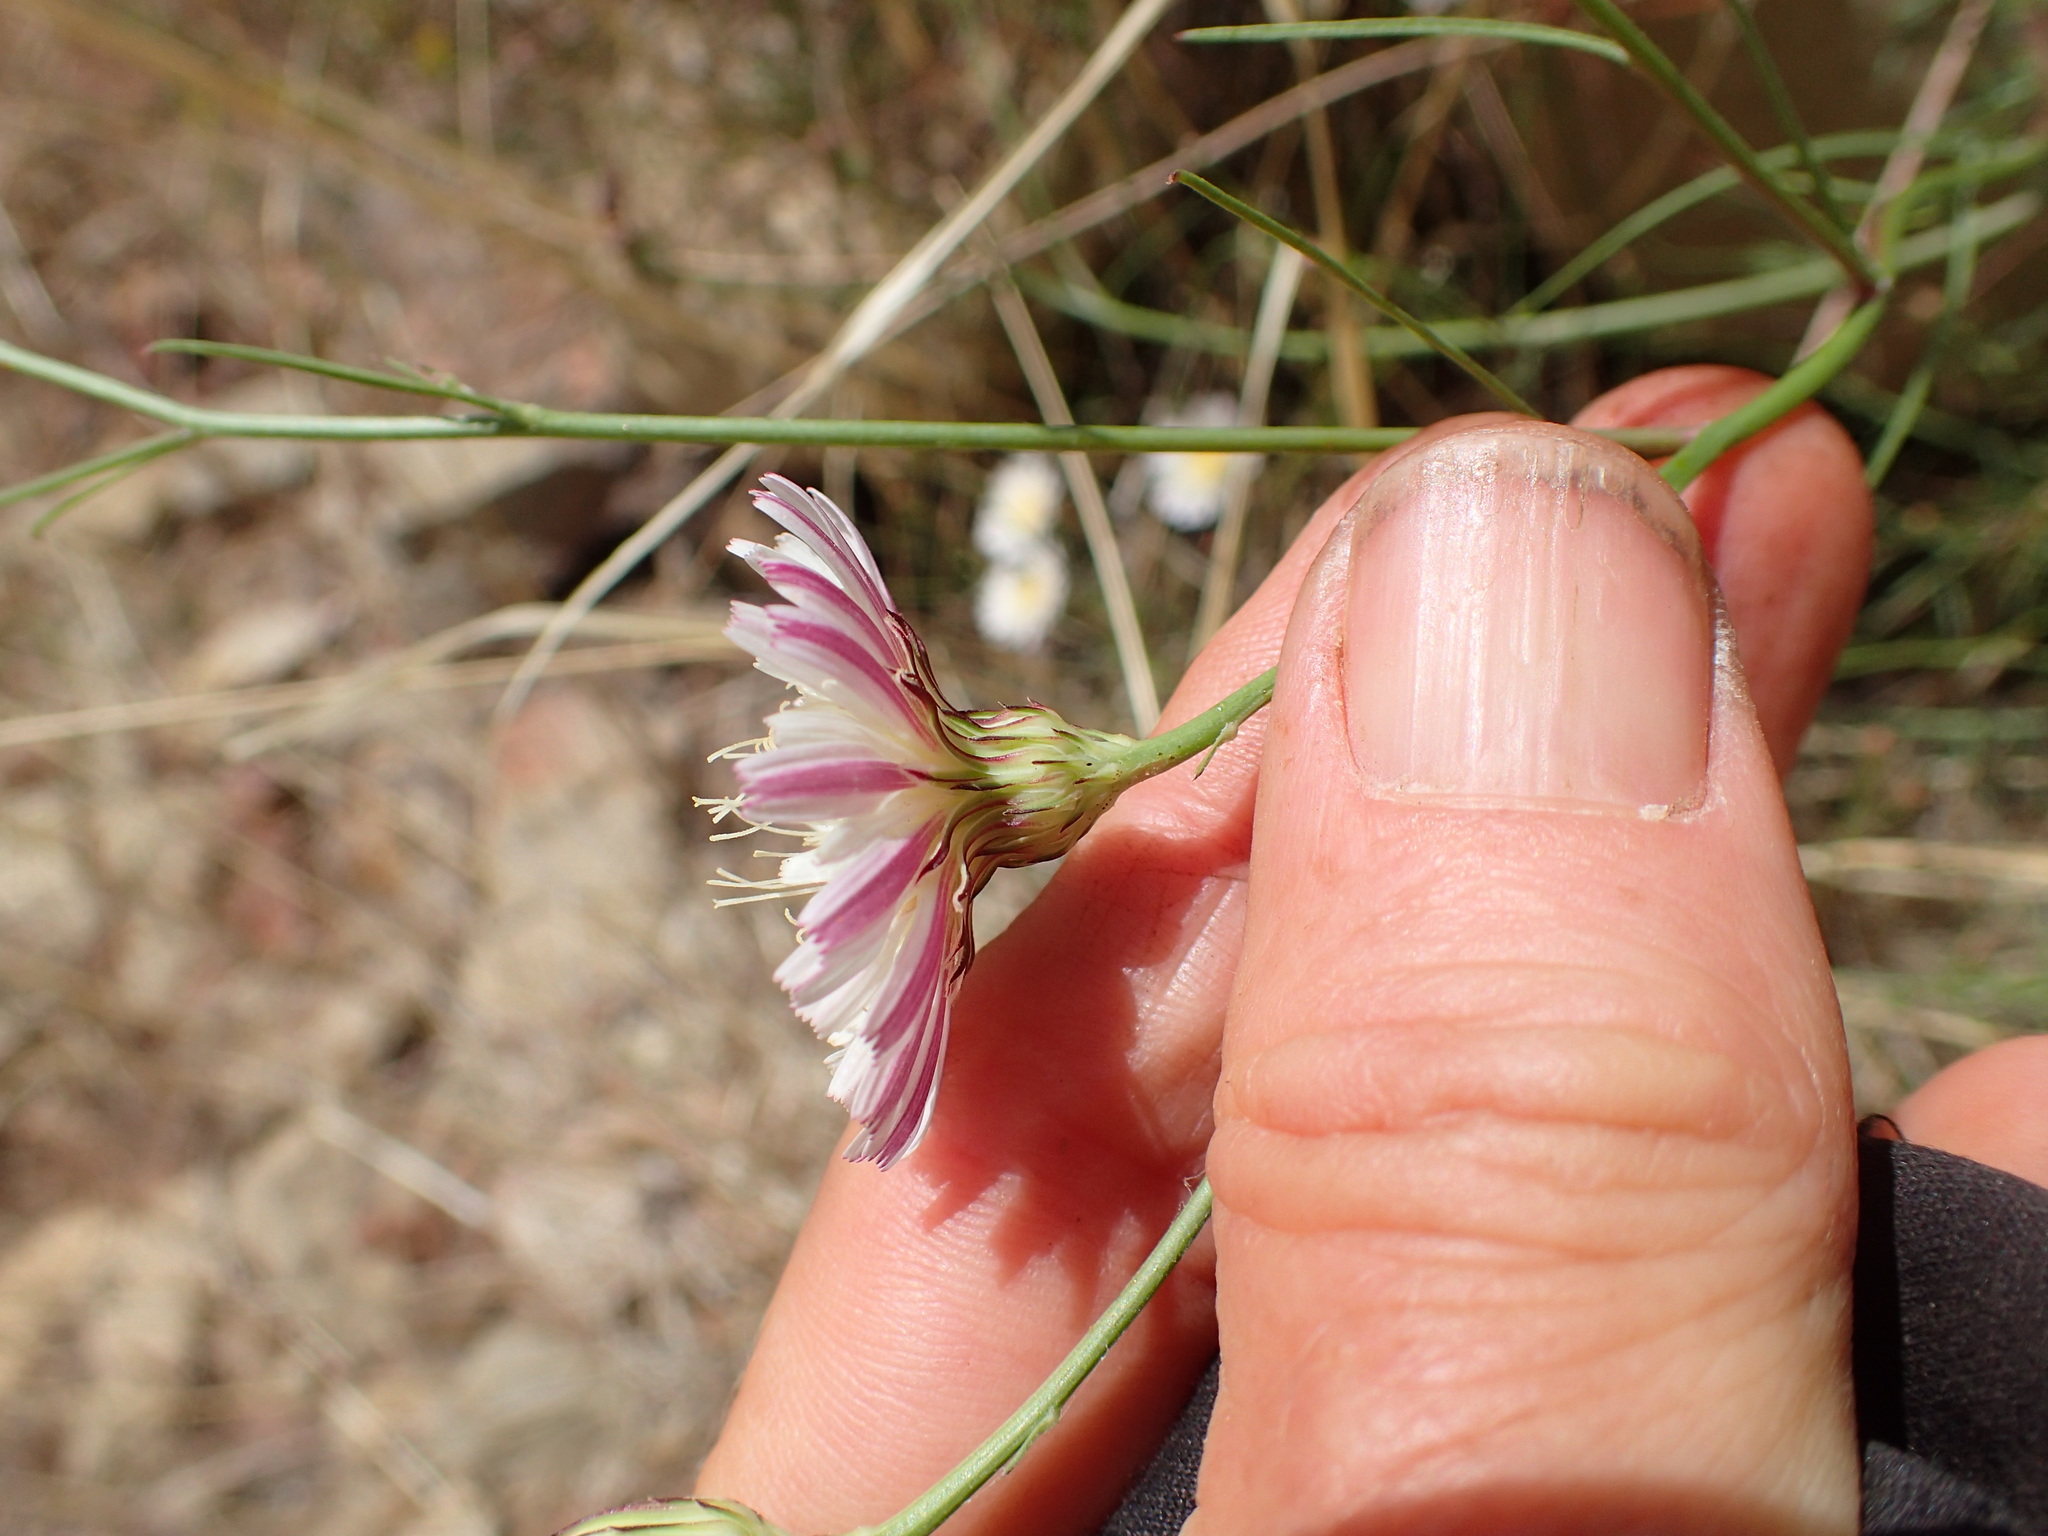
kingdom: Plantae
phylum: Tracheophyta
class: Magnoliopsida
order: Asterales
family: Asteraceae
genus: Malacothrix
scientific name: Malacothrix saxatilis
